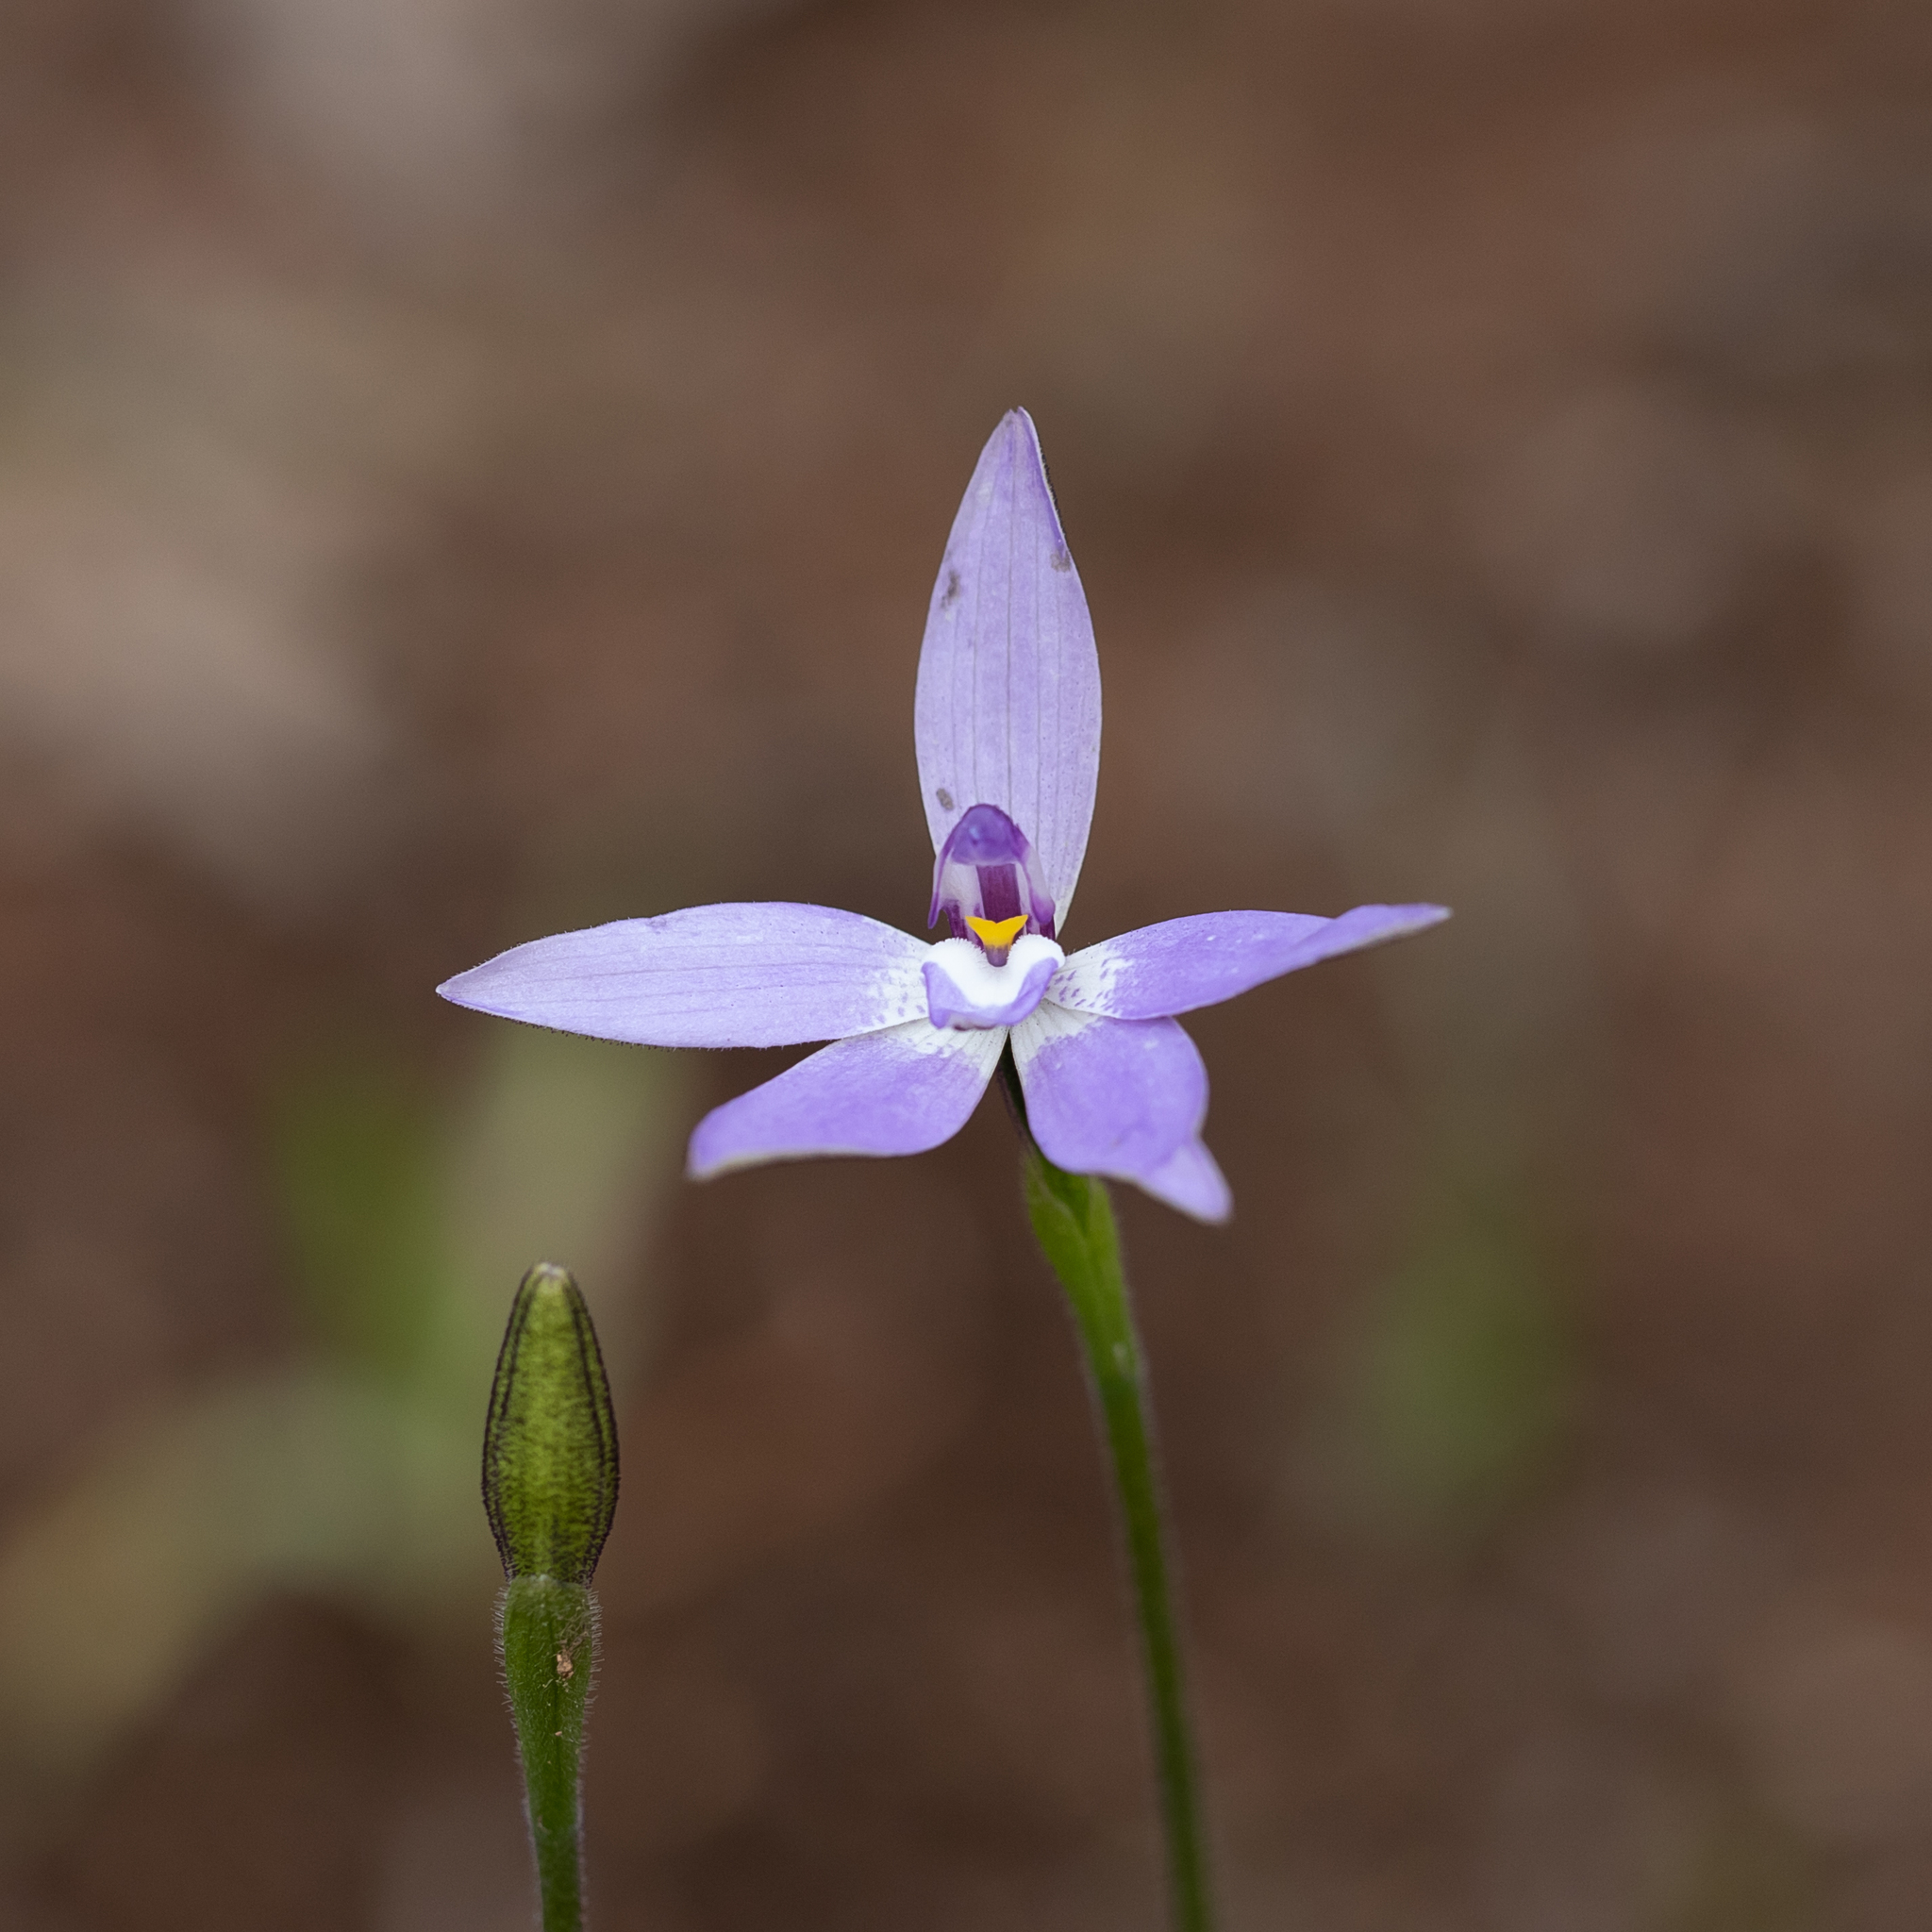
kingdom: Plantae
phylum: Tracheophyta
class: Liliopsida
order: Asparagales
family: Orchidaceae
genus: Caladenia
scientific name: Caladenia major
